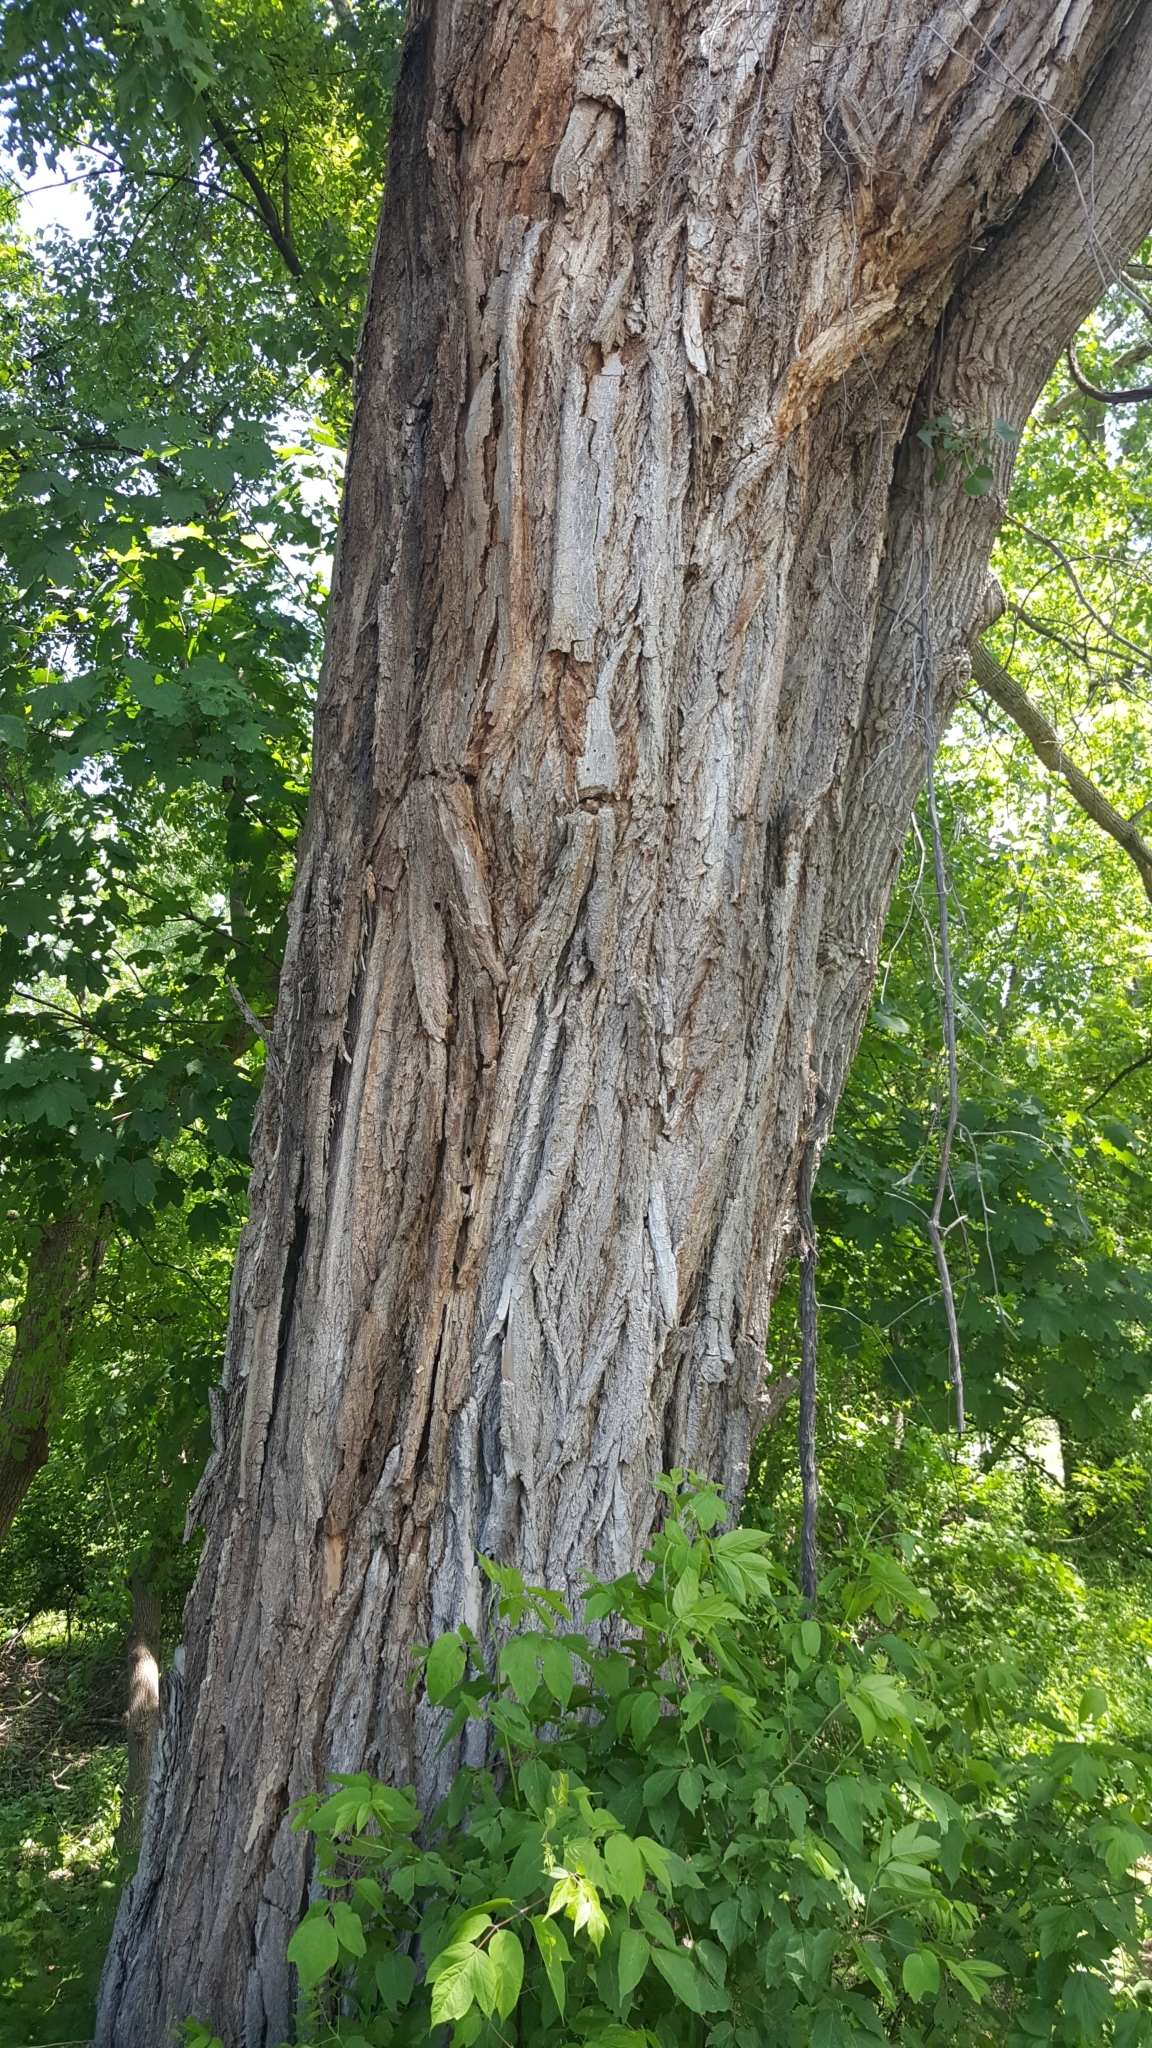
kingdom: Plantae
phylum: Tracheophyta
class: Magnoliopsida
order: Malpighiales
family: Salicaceae
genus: Populus
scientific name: Populus deltoides
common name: Eastern cottonwood
